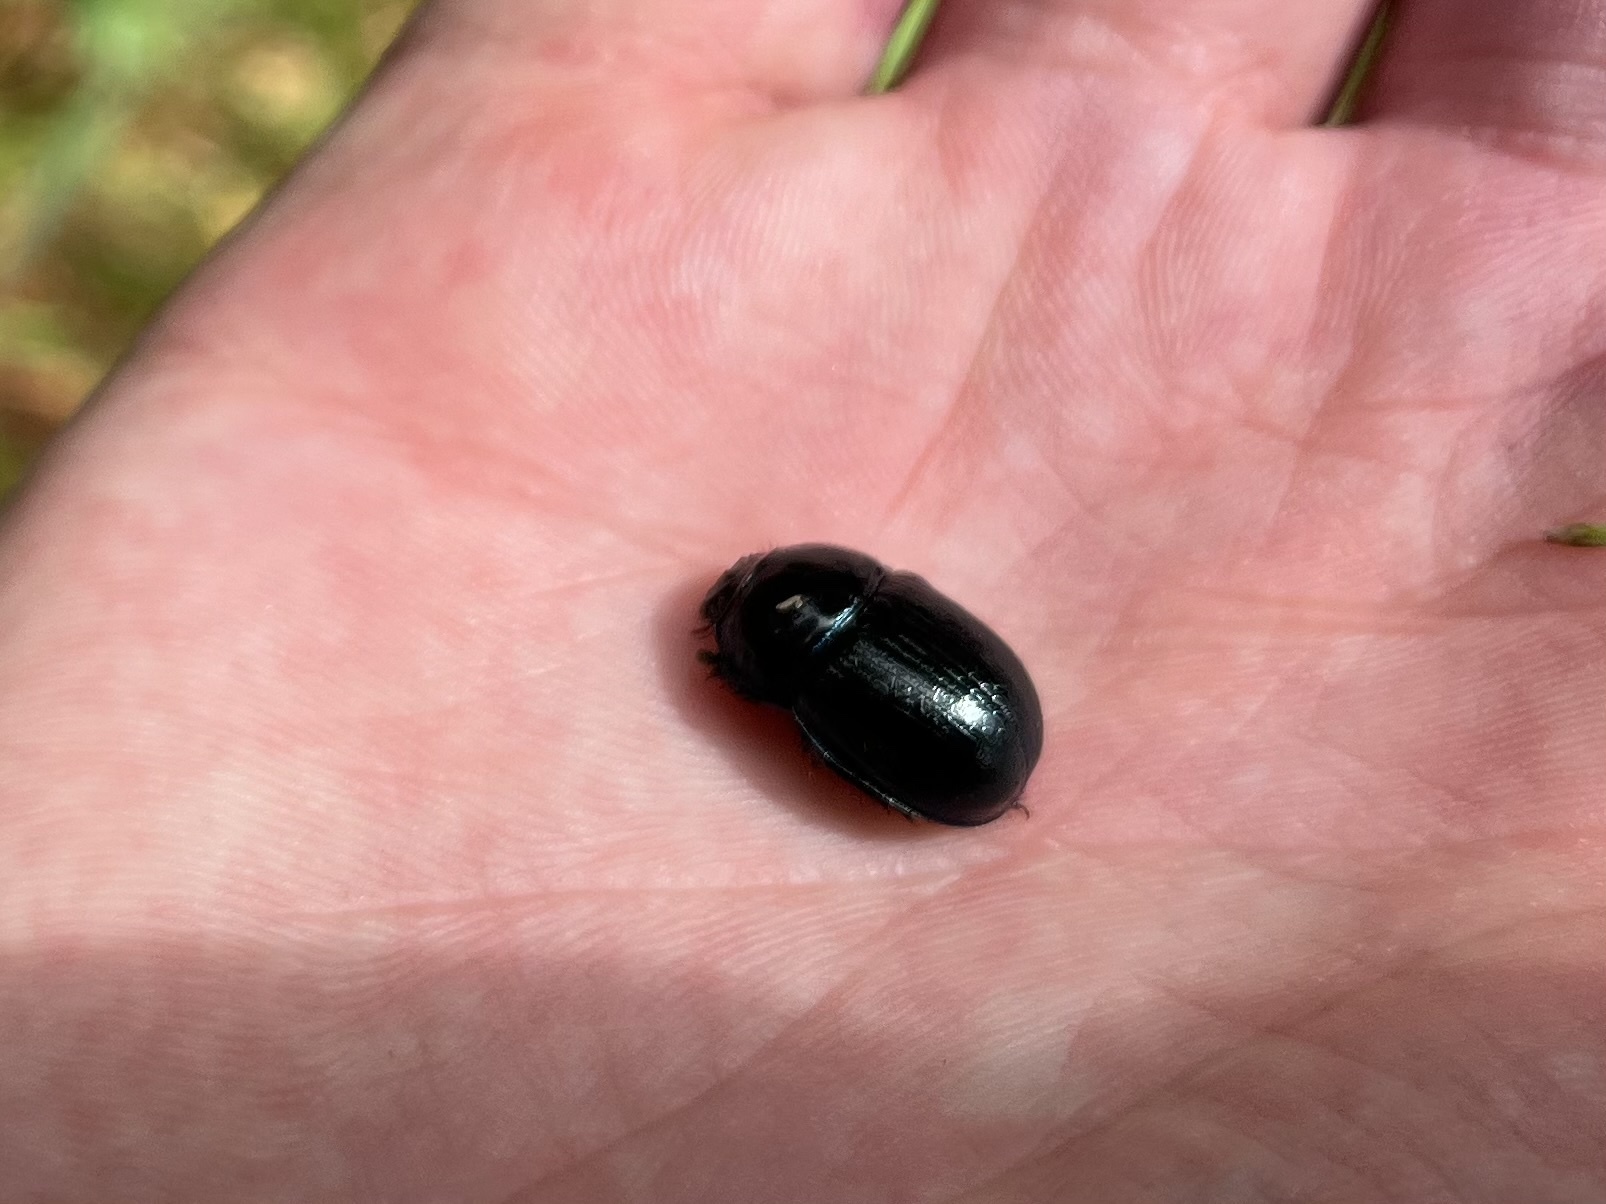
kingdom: Animalia
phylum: Arthropoda
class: Insecta
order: Coleoptera
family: Geotrupidae
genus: Anoplotrupes
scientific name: Anoplotrupes stercorosus
